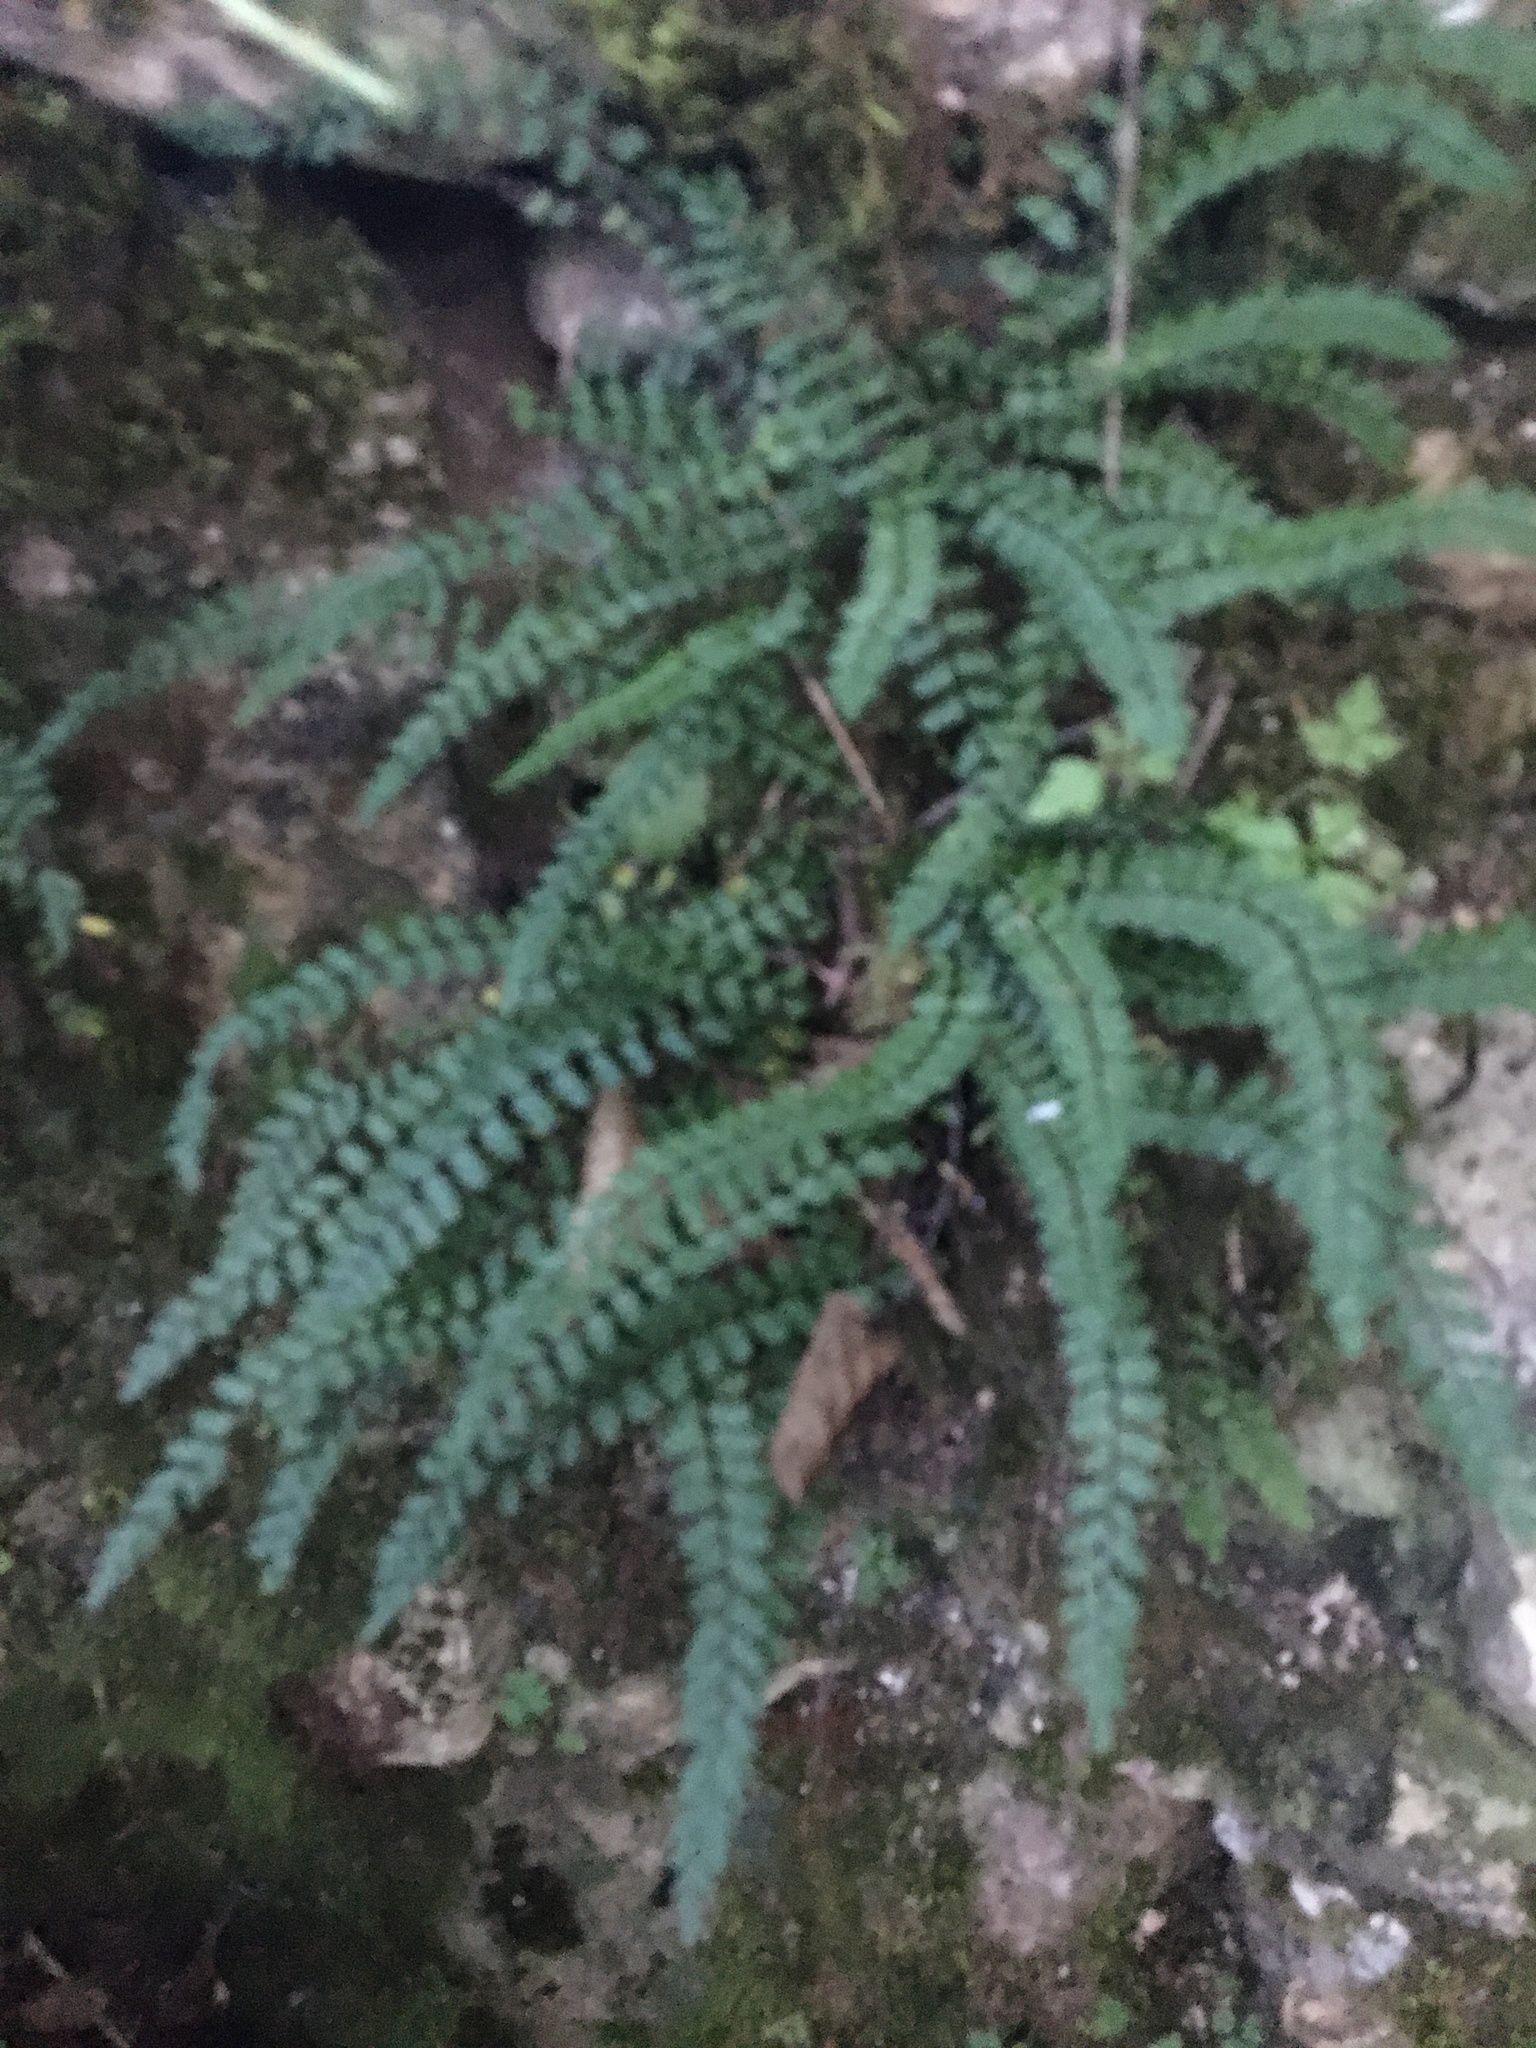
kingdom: Plantae
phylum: Tracheophyta
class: Polypodiopsida
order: Polypodiales
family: Aspleniaceae
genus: Asplenium
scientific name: Asplenium trichomanes
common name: Maidenhair spleenwort
